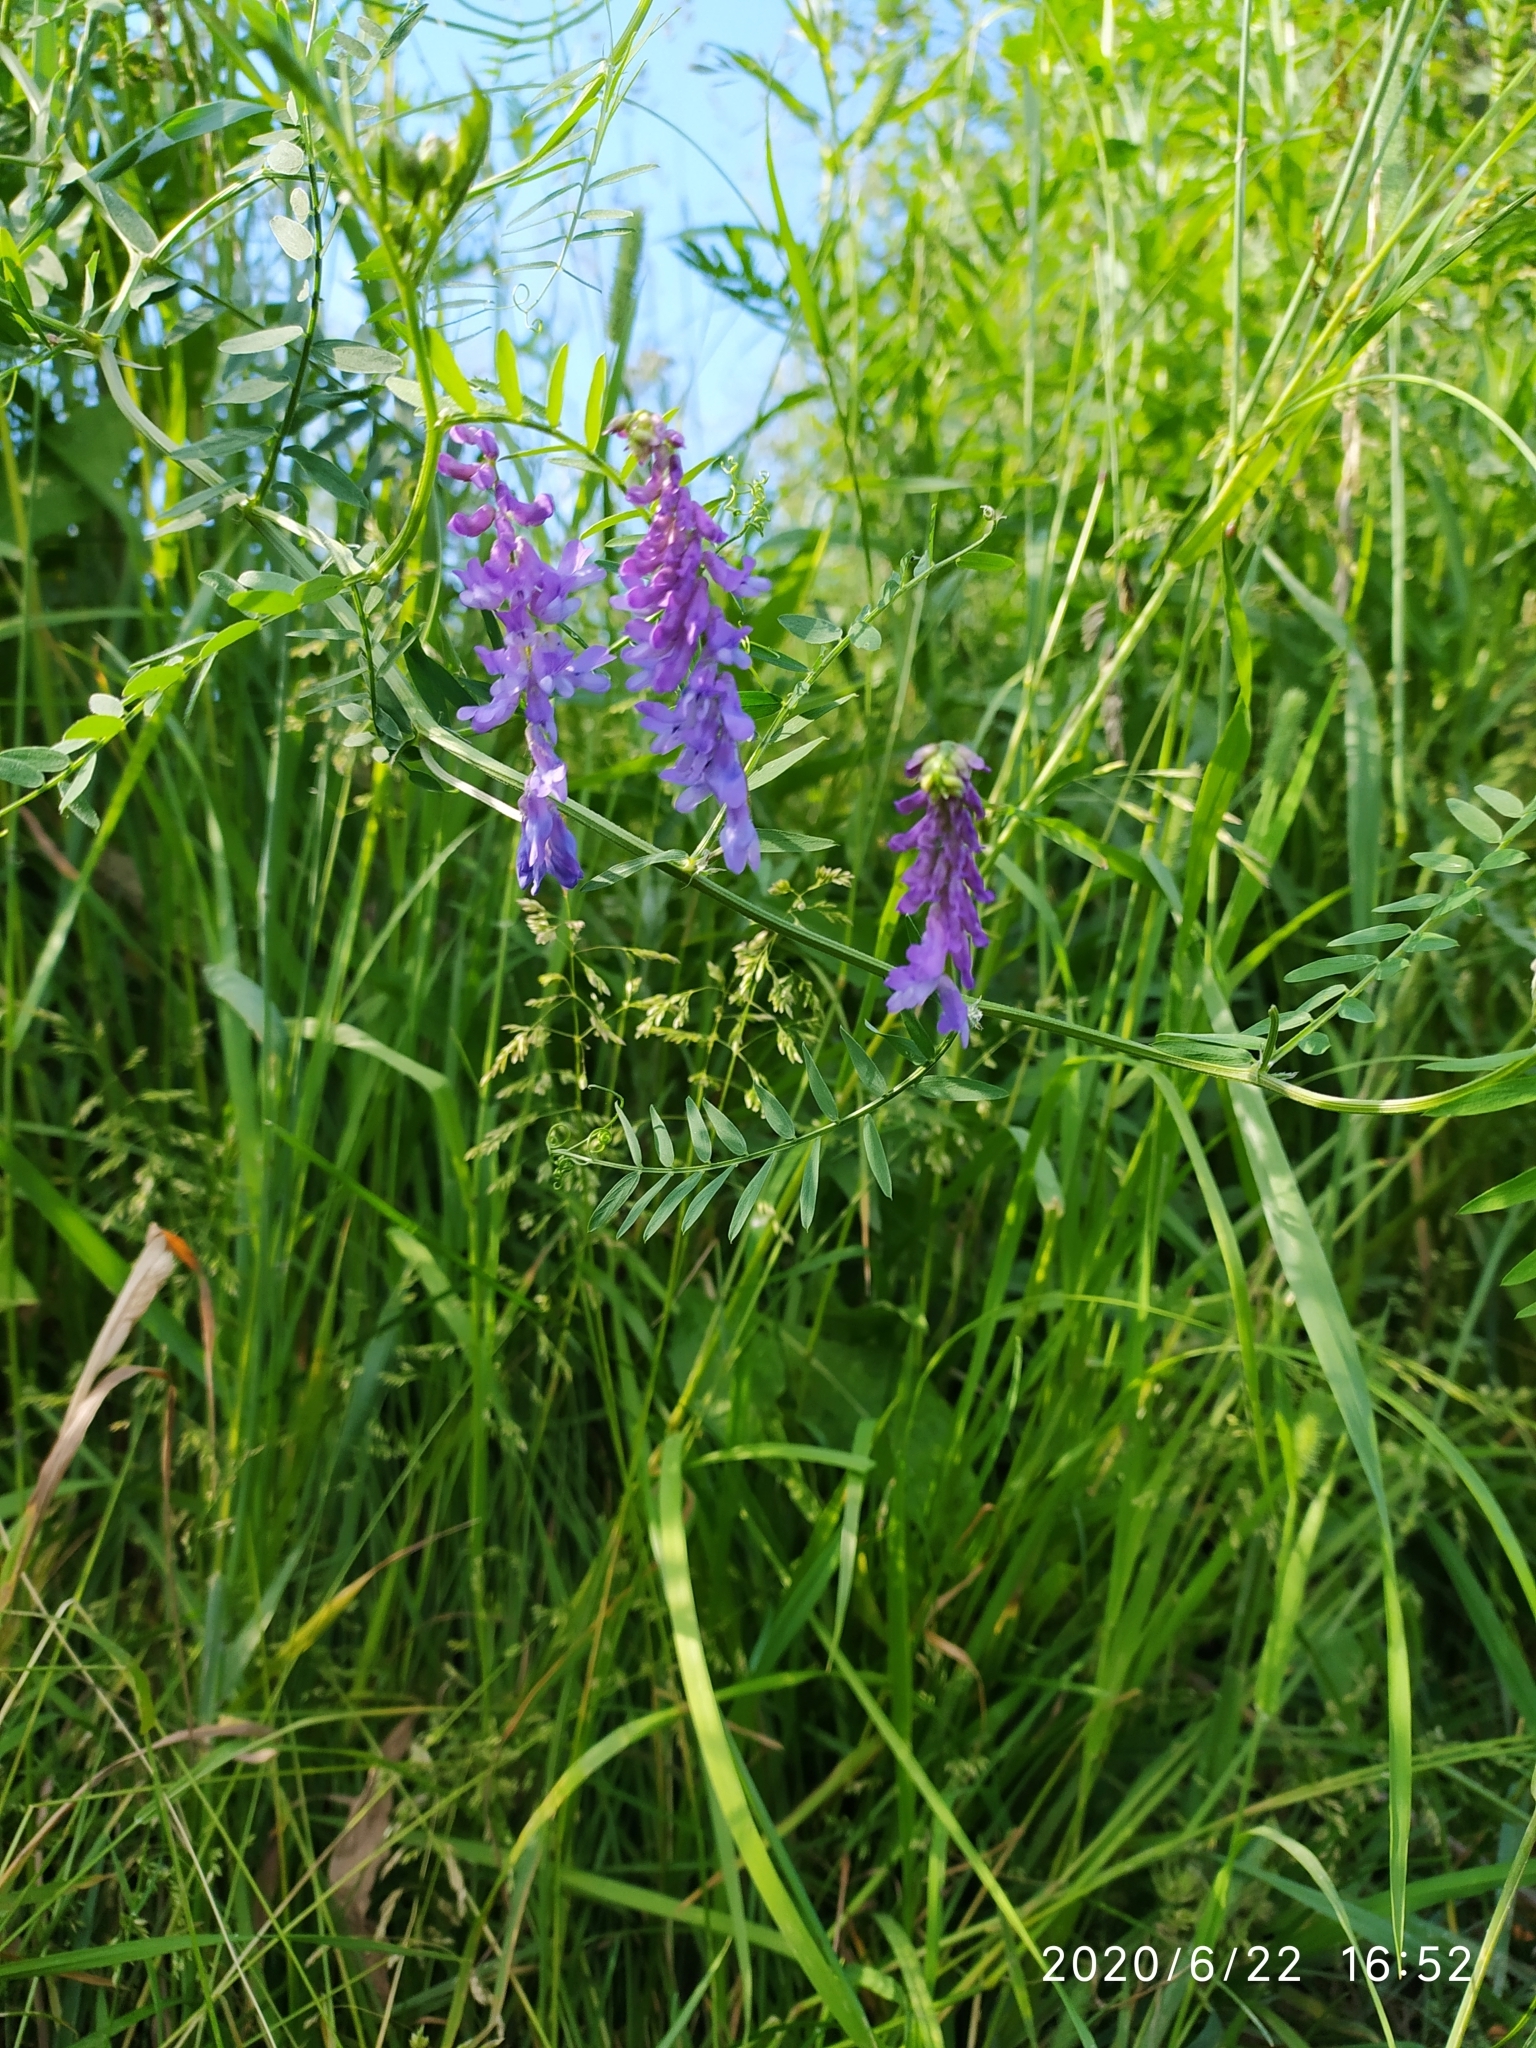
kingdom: Plantae
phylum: Tracheophyta
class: Magnoliopsida
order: Fabales
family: Fabaceae
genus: Vicia
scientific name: Vicia cracca
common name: Bird vetch
